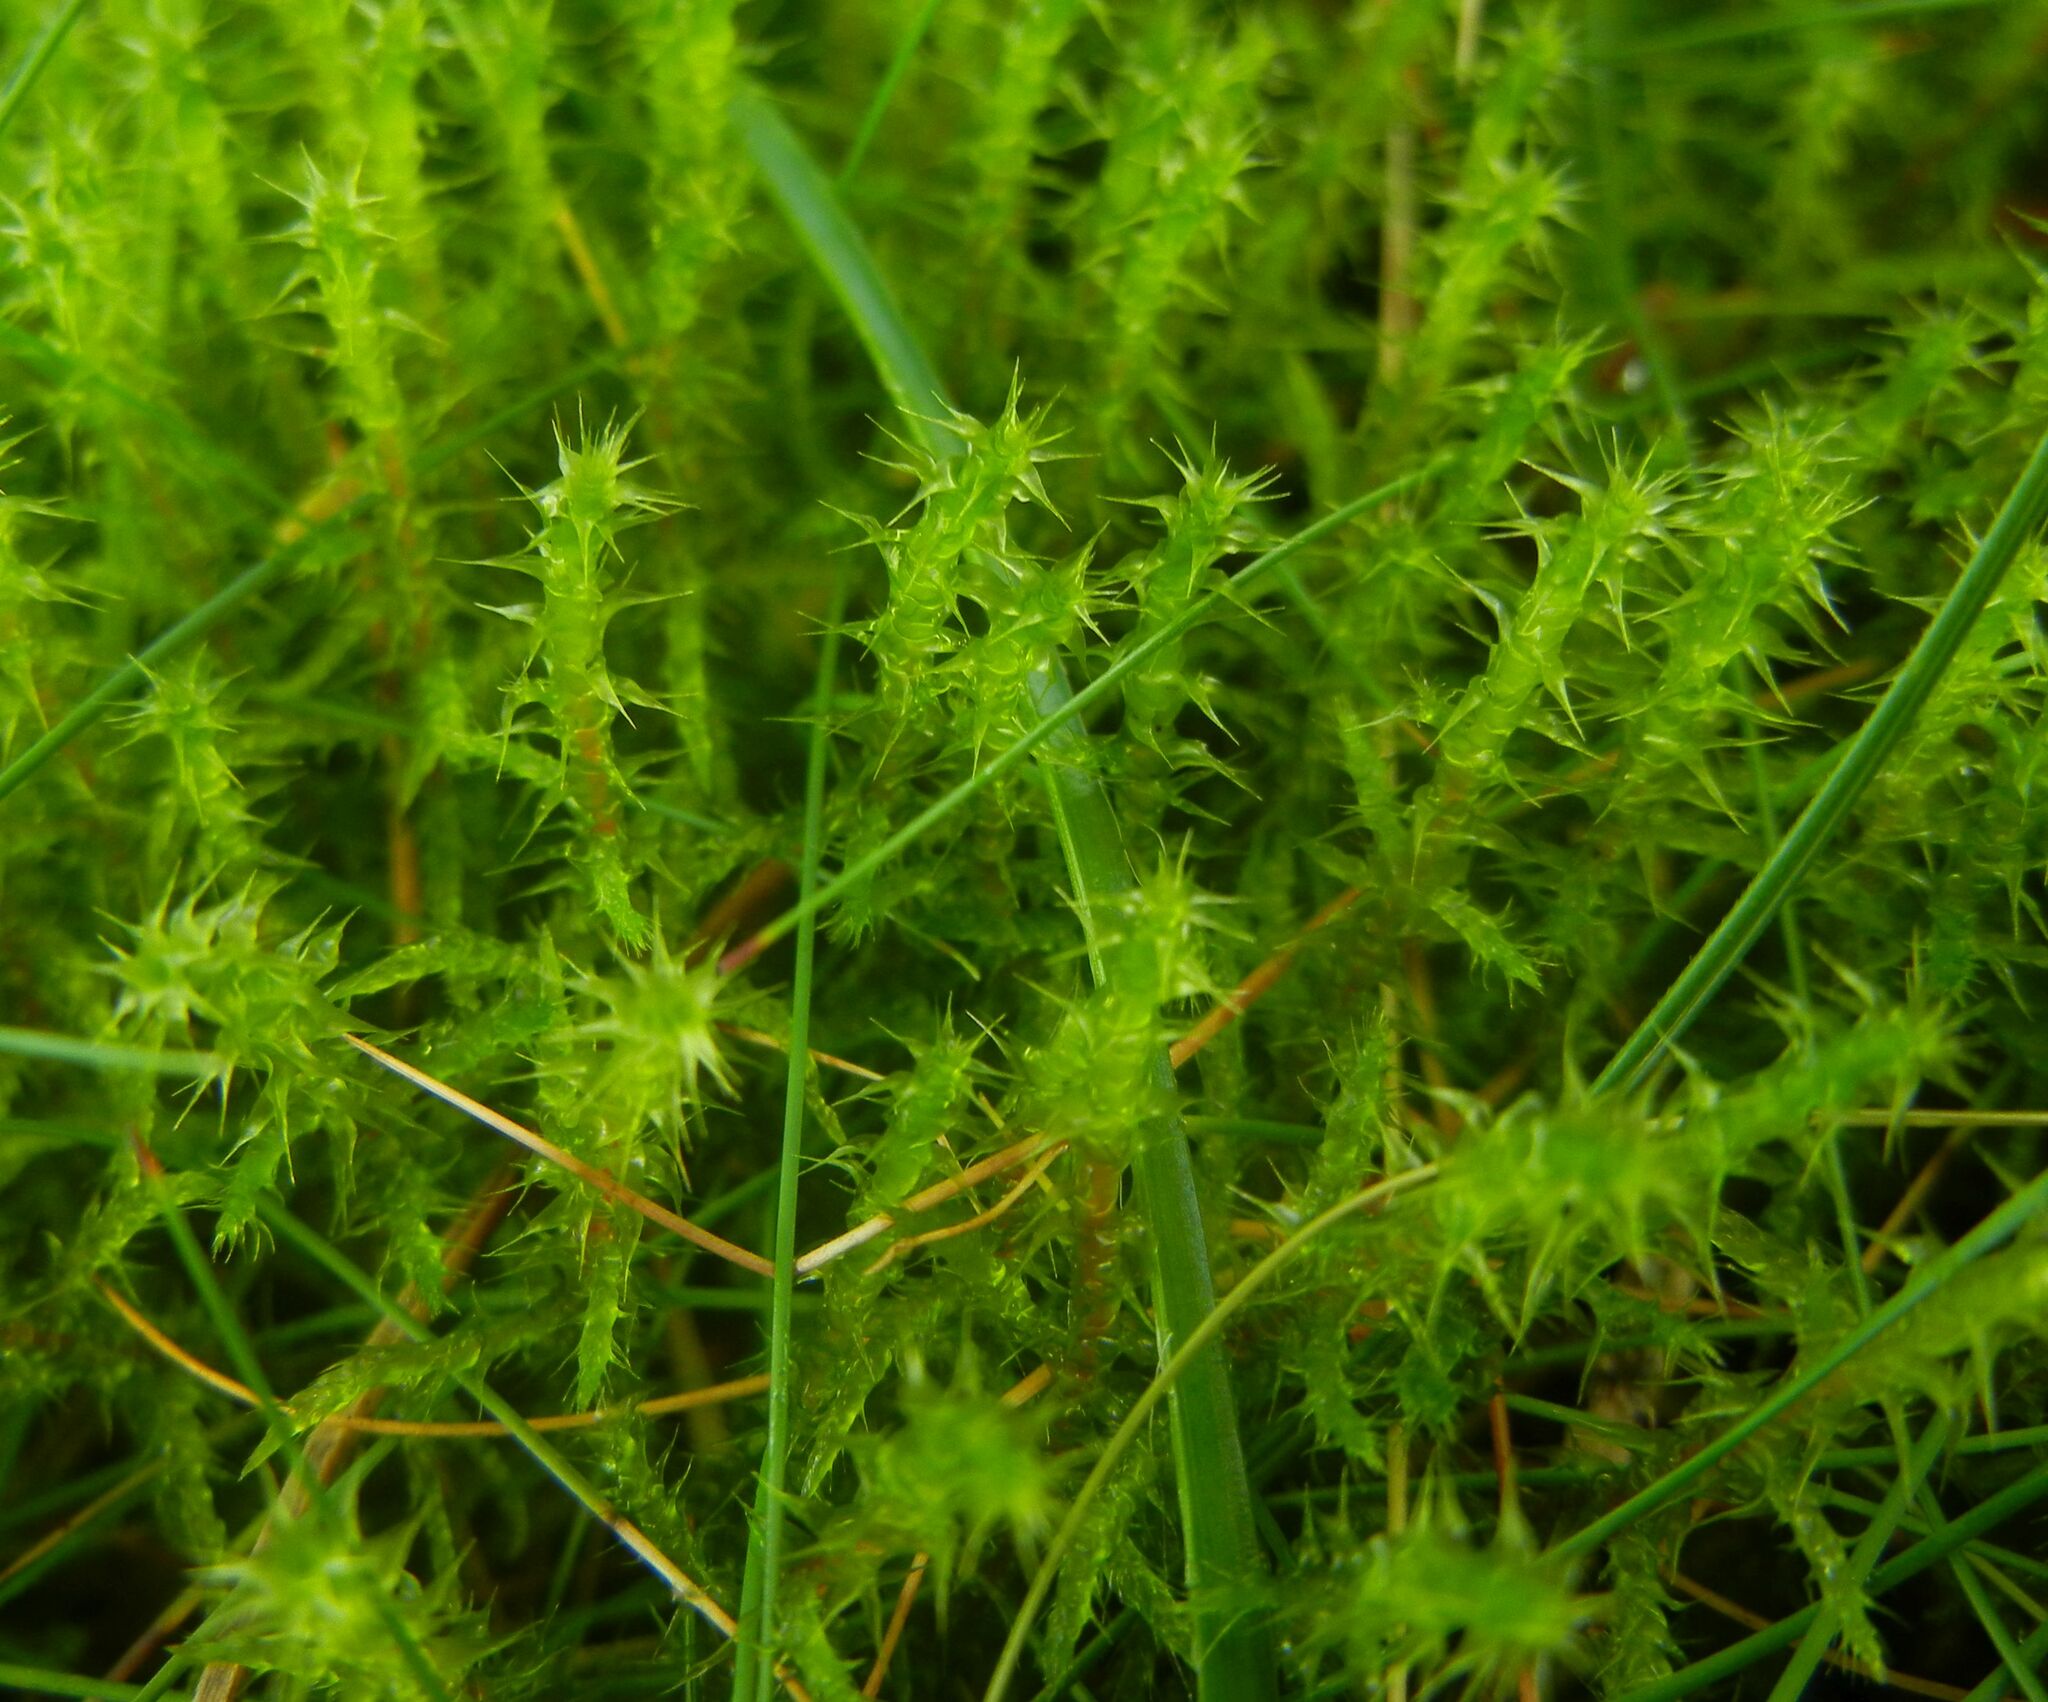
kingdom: Plantae
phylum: Bryophyta
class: Bryopsida
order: Hypnales
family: Hylocomiaceae
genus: Rhytidiadelphus
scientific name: Rhytidiadelphus squarrosus
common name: Springy turf-moss
